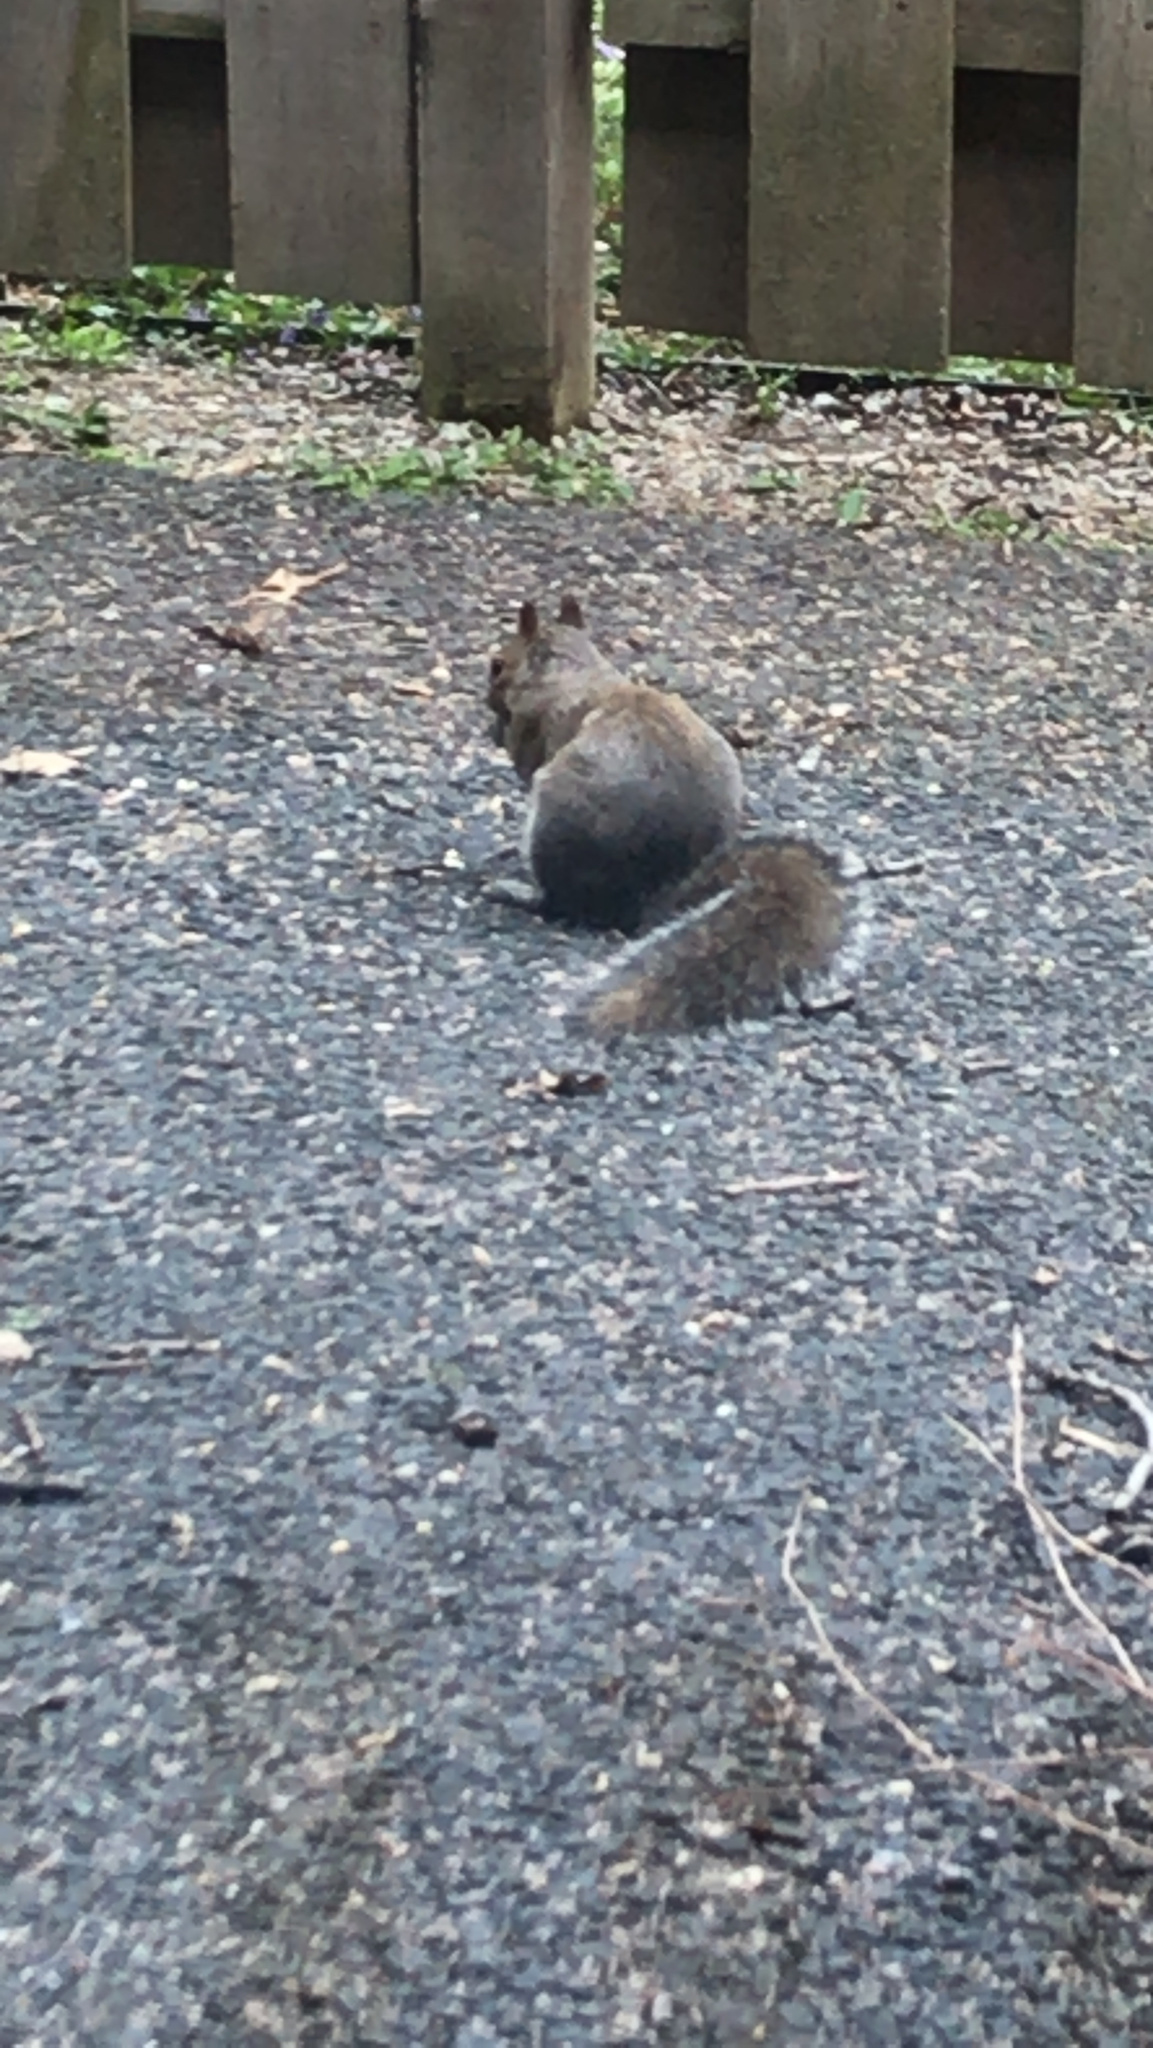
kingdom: Animalia
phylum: Chordata
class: Mammalia
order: Rodentia
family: Sciuridae
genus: Sciurus
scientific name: Sciurus carolinensis
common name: Eastern gray squirrel
